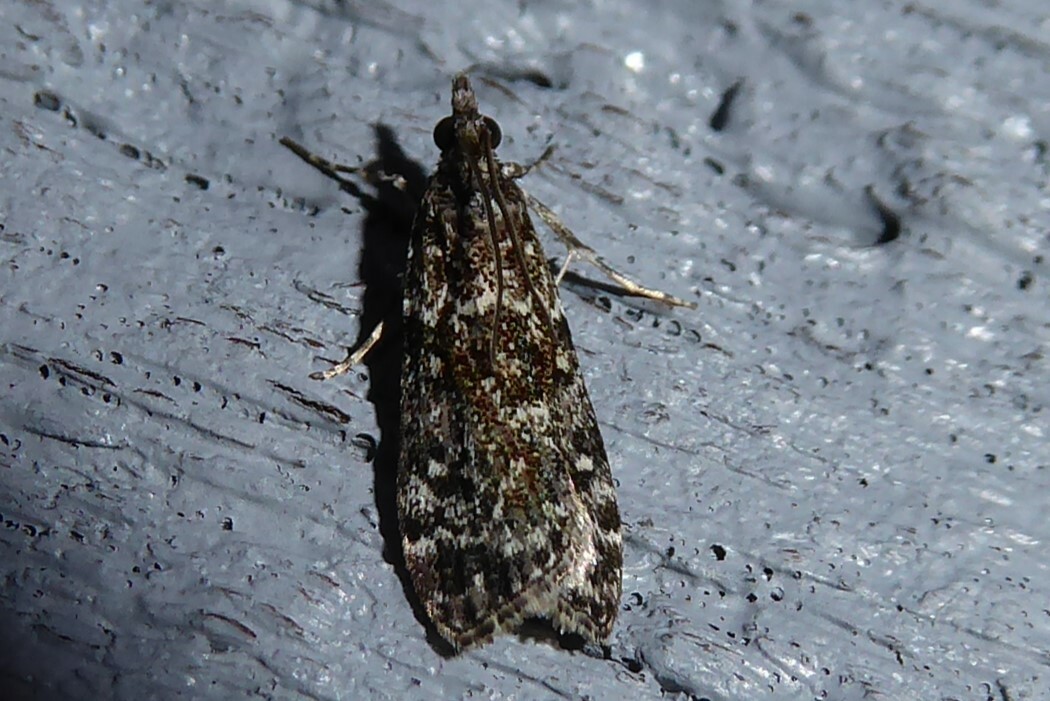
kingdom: Animalia
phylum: Arthropoda
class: Insecta
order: Lepidoptera
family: Crambidae
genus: Eudonia
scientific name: Eudonia philerga
